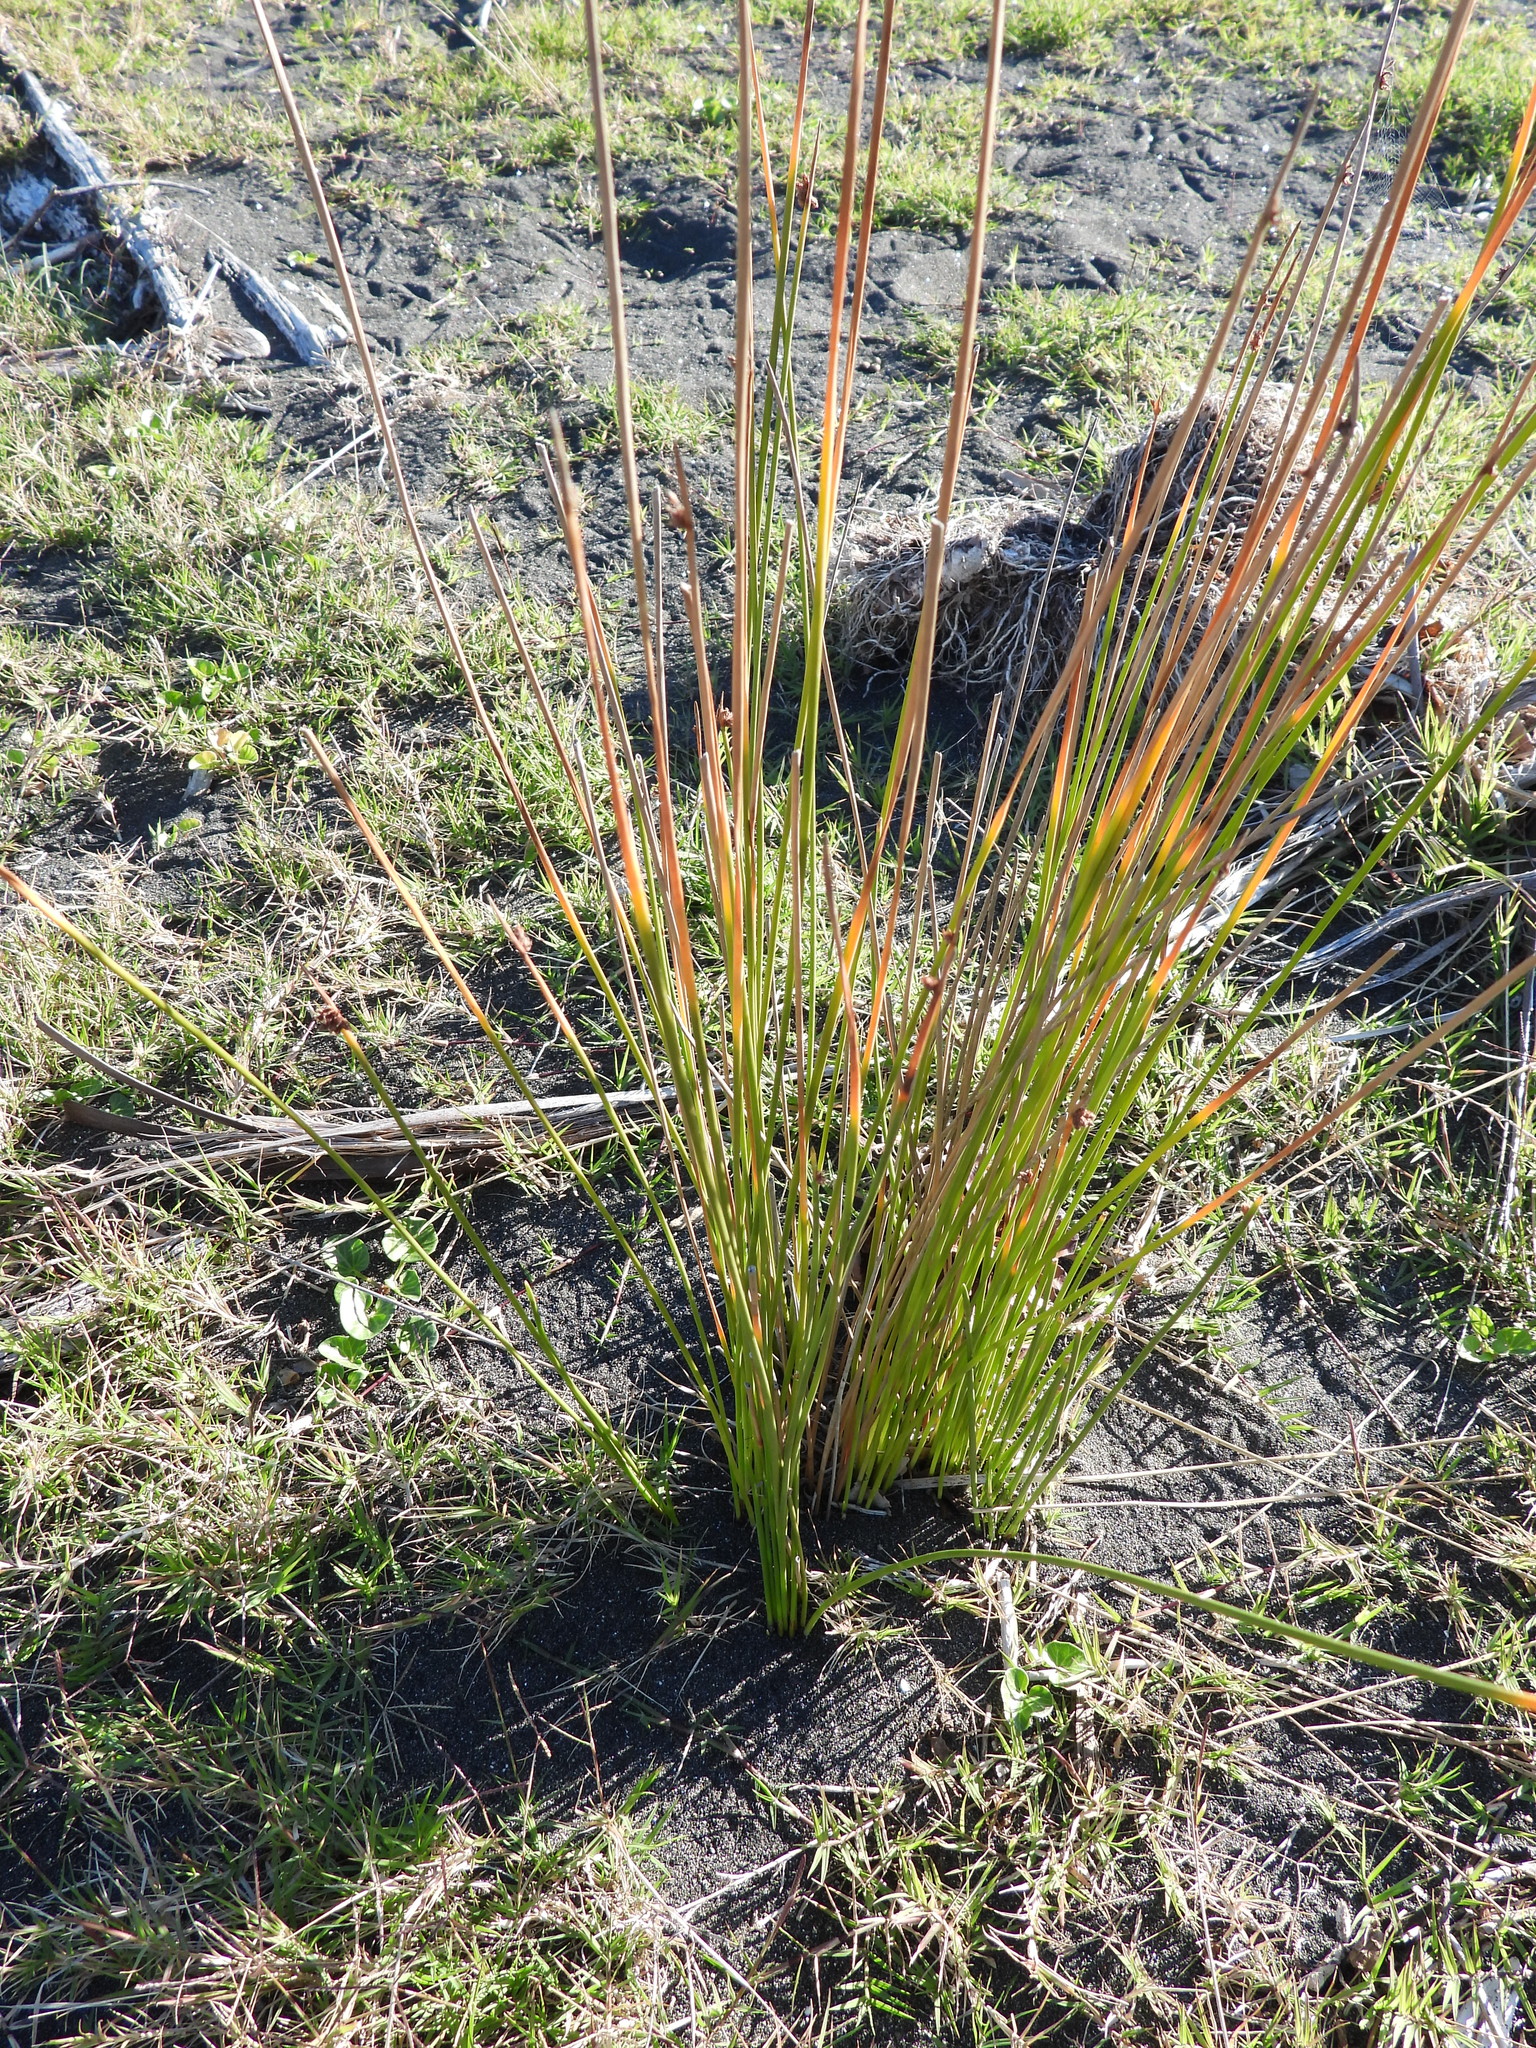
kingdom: Plantae
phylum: Tracheophyta
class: Liliopsida
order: Poales
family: Cyperaceae
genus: Ficinia
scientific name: Ficinia nodosa
